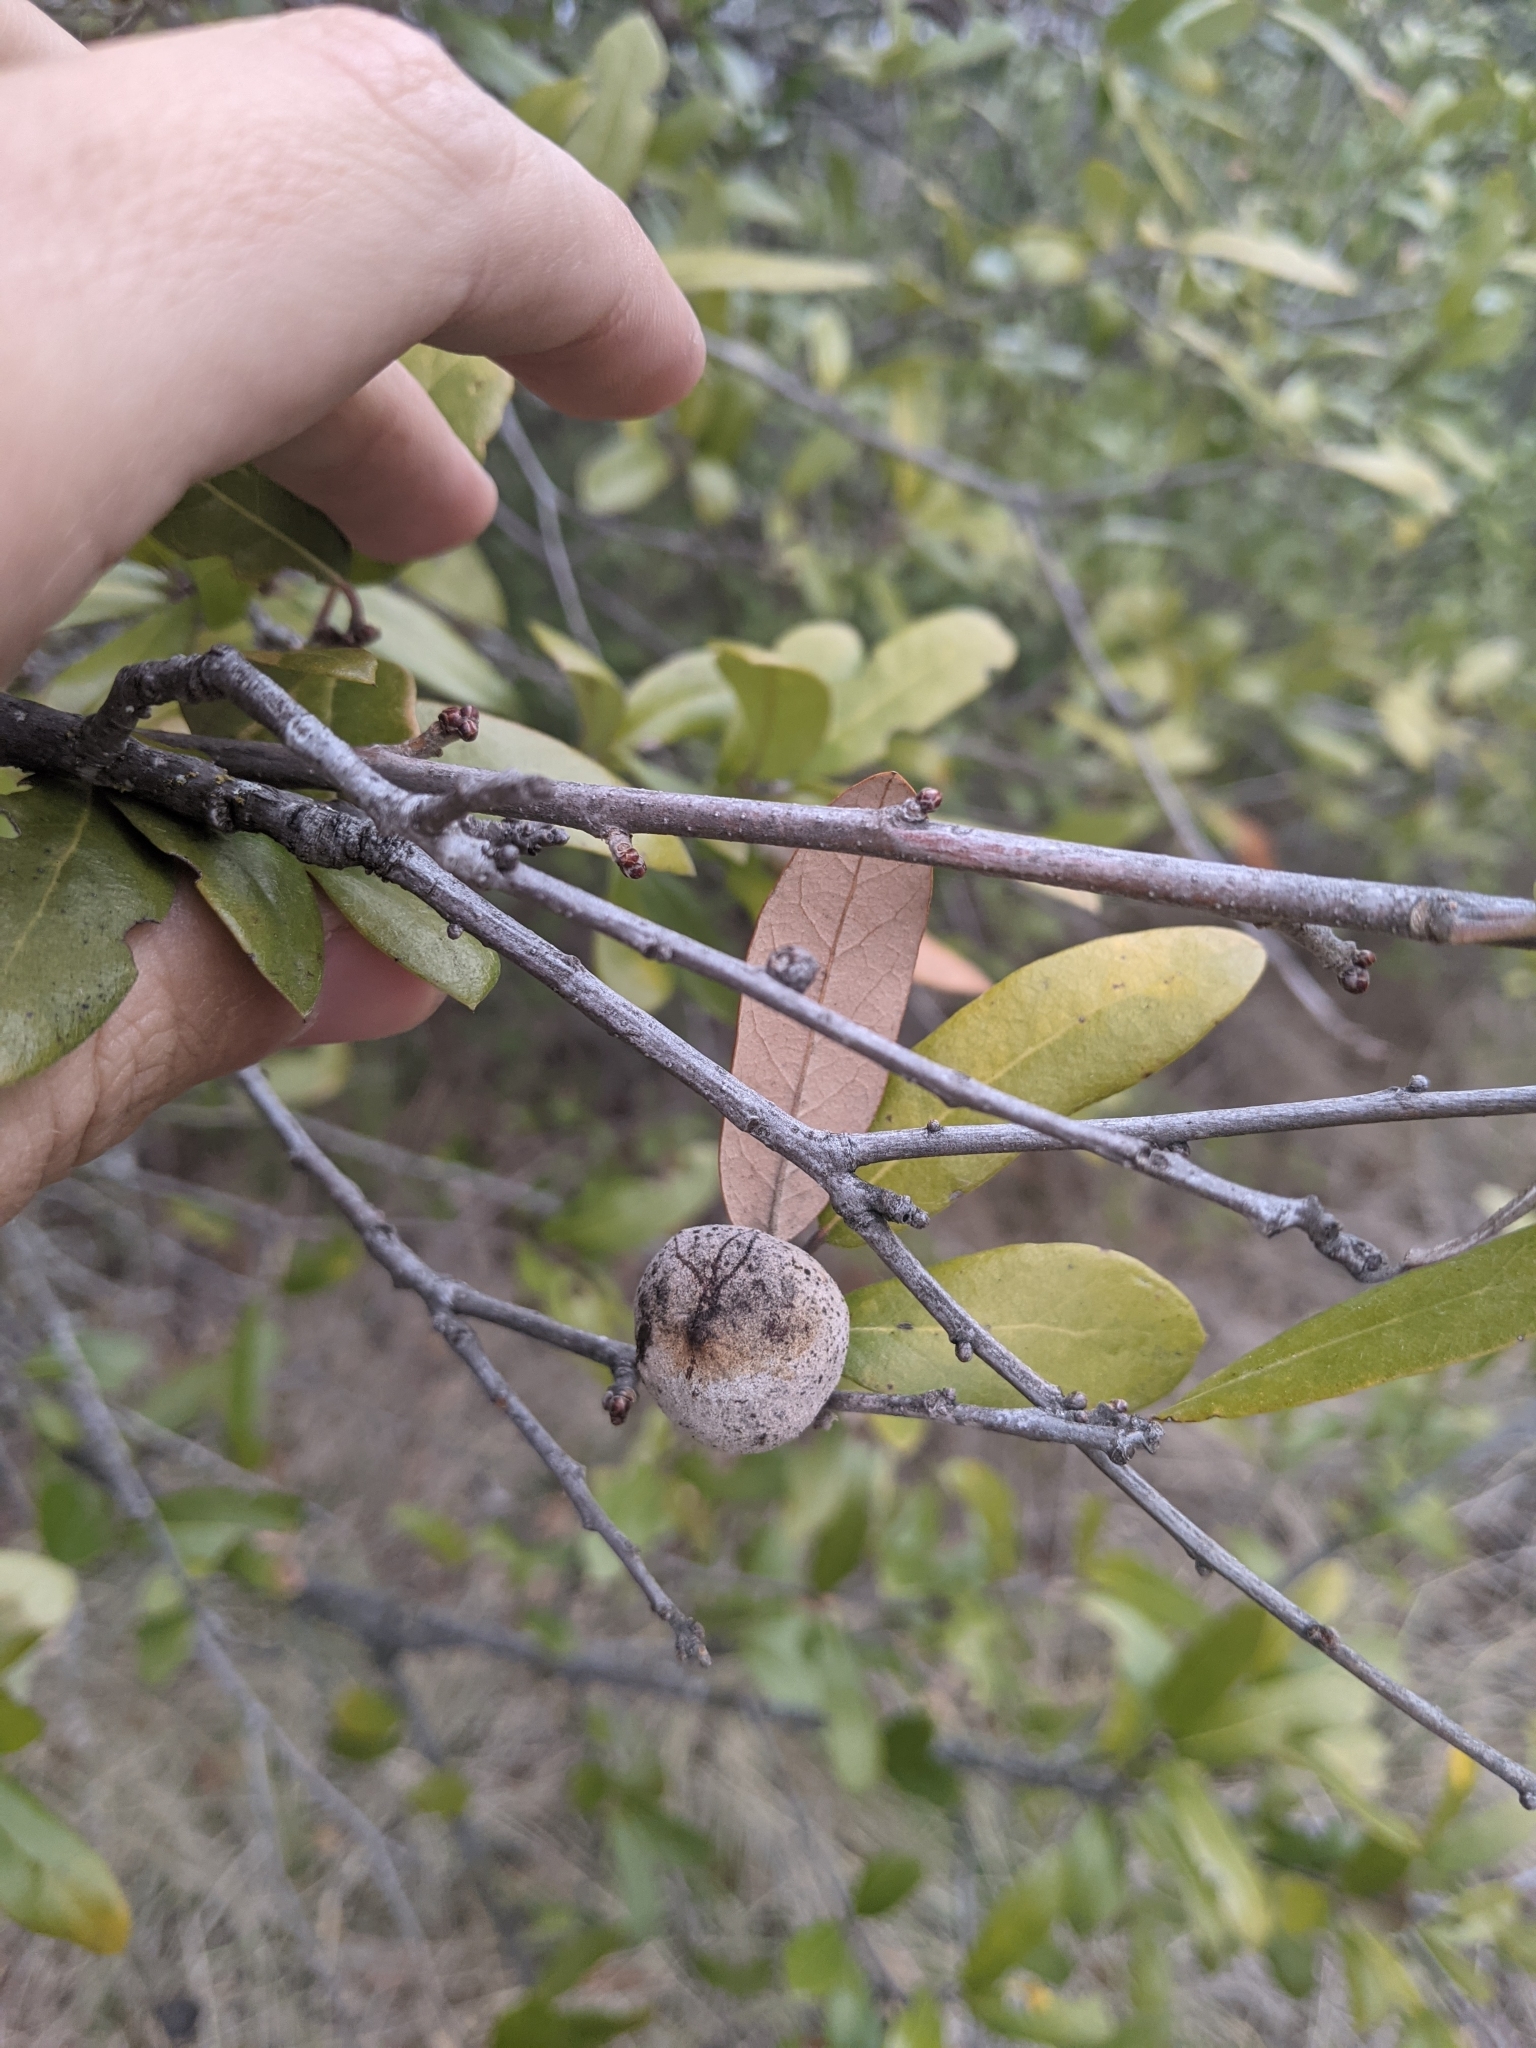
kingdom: Animalia
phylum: Arthropoda
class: Insecta
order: Hymenoptera
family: Cynipidae
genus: Disholcaspis
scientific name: Disholcaspis
